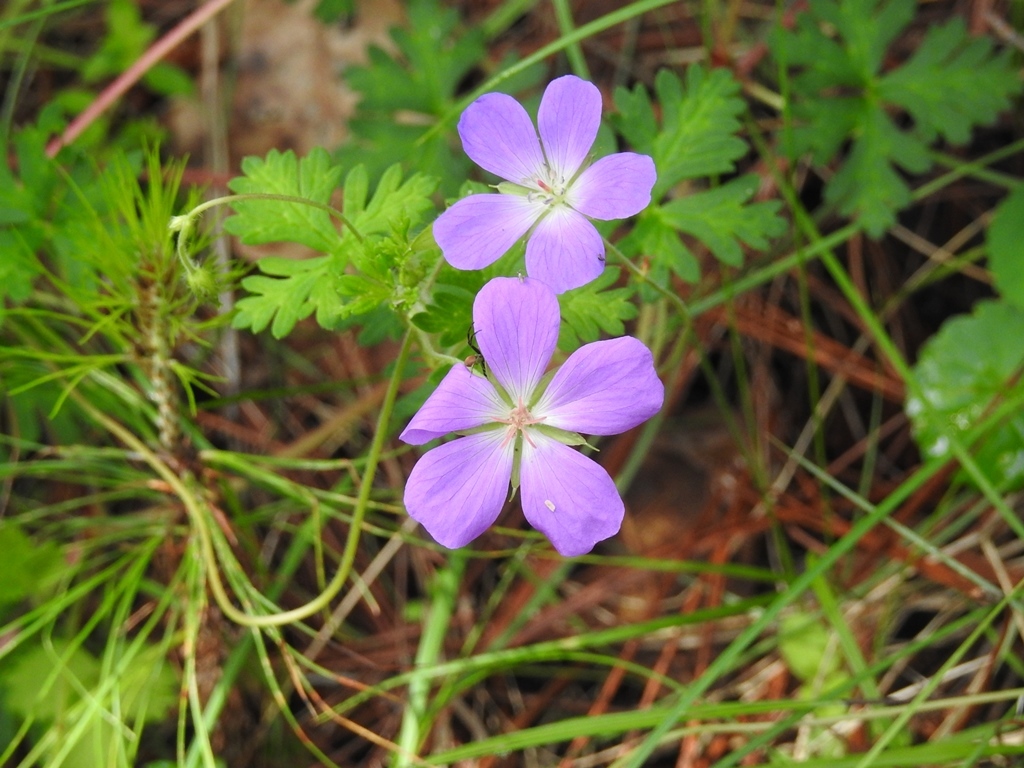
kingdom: Plantae
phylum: Tracheophyta
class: Magnoliopsida
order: Geraniales
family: Geraniaceae
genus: Geranium
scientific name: Geranium goldmanii
